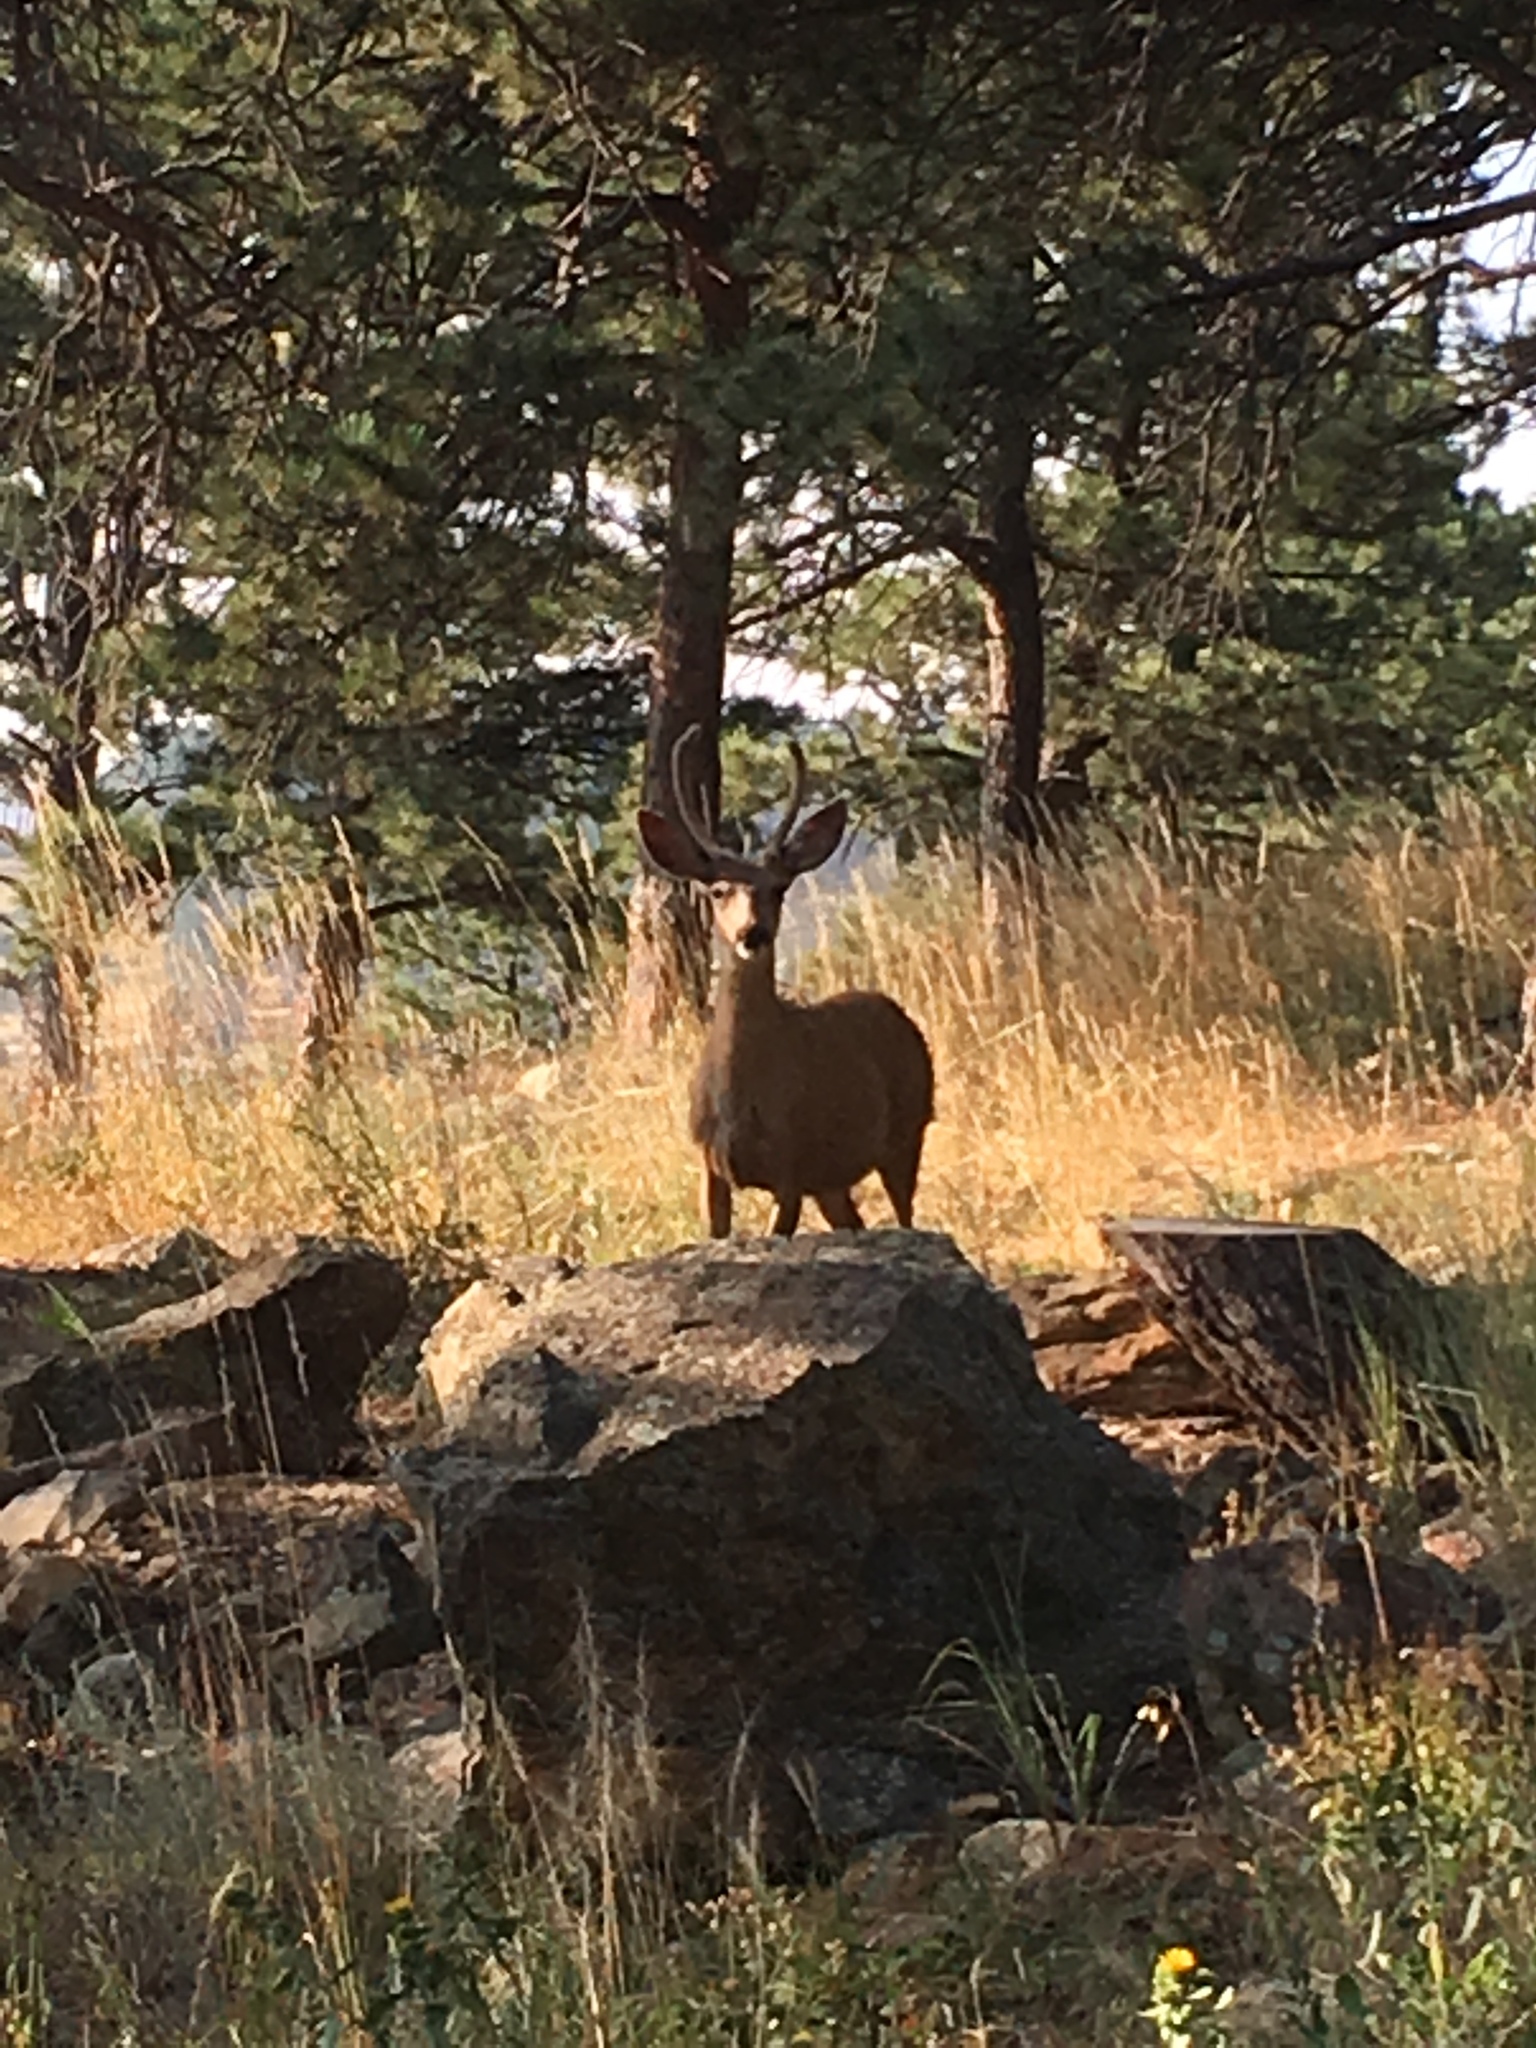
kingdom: Animalia
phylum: Chordata
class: Mammalia
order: Artiodactyla
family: Cervidae
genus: Odocoileus
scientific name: Odocoileus hemionus
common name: Mule deer
